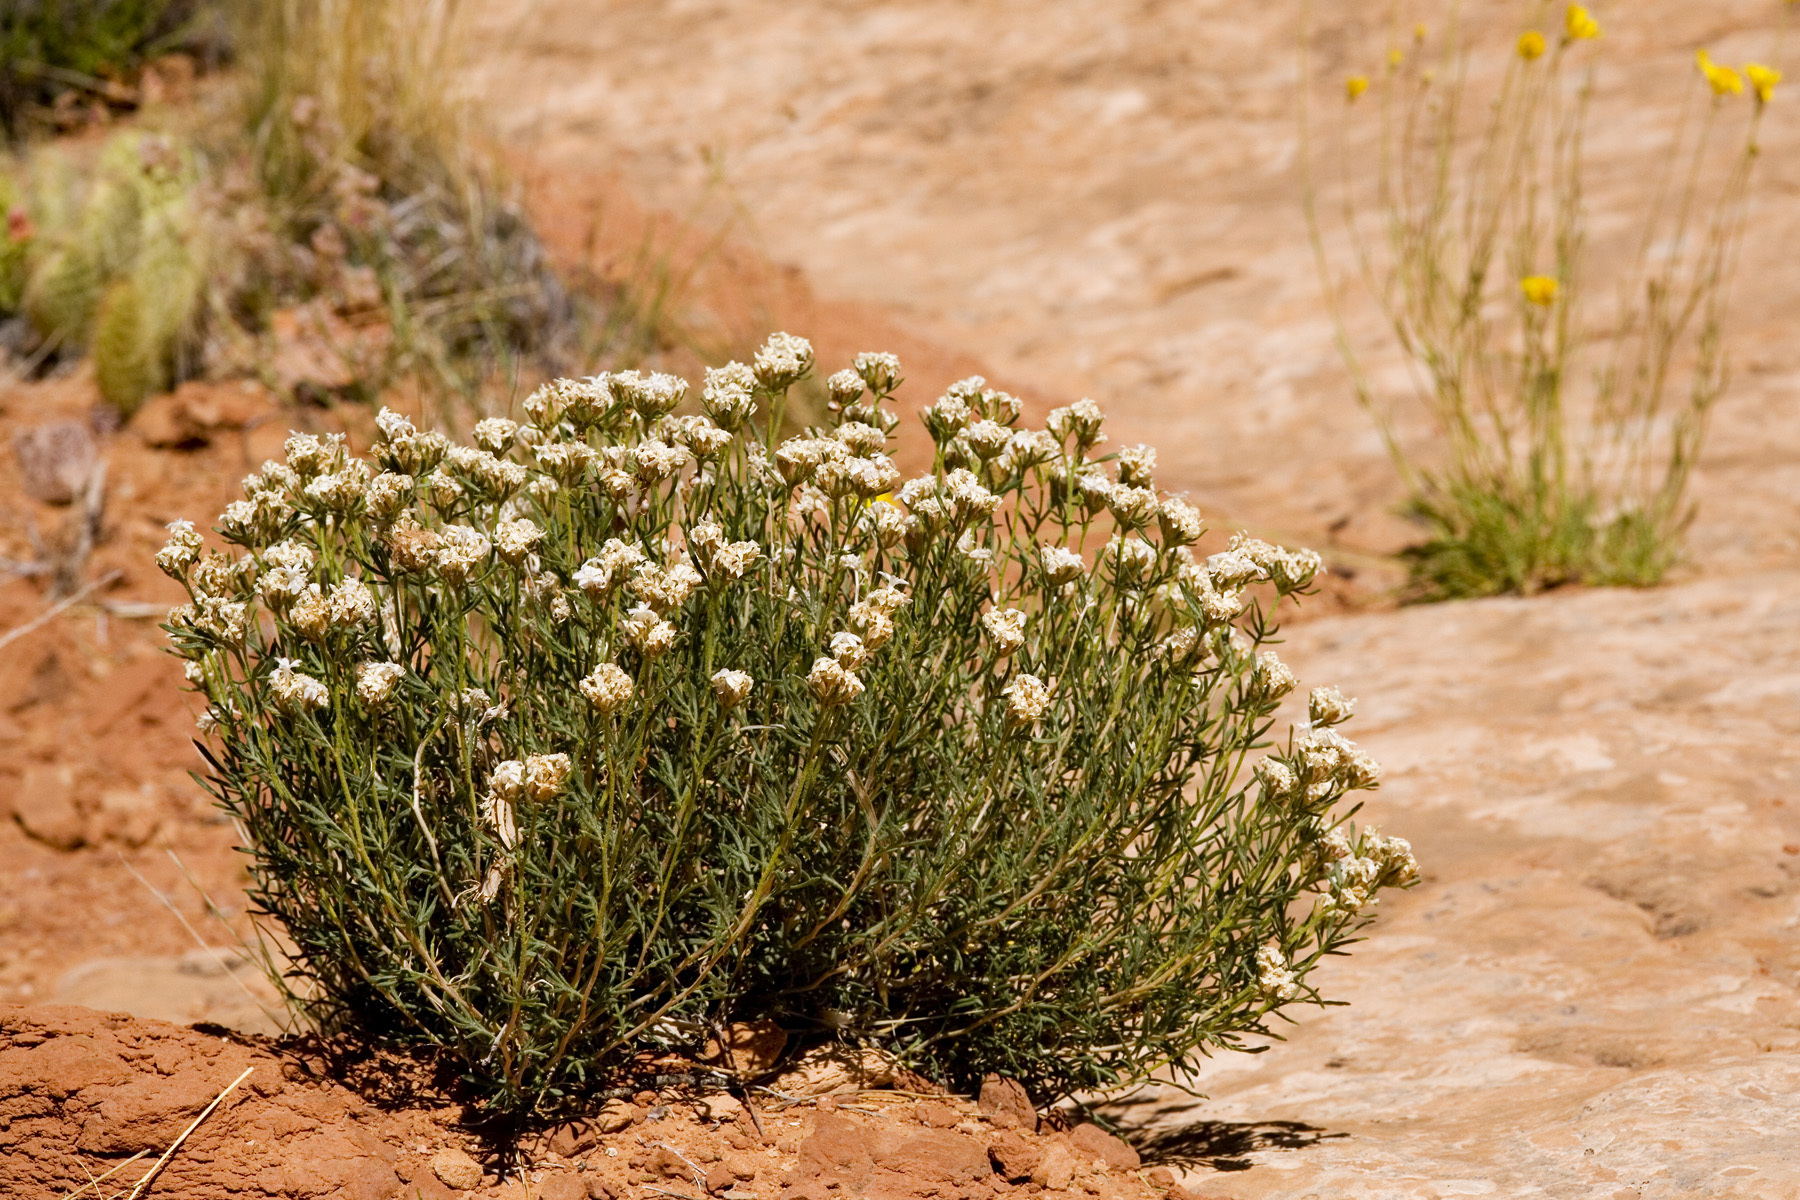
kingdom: Plantae
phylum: Tracheophyta
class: Magnoliopsida
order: Ericales
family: Polemoniaceae
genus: Ipomopsis
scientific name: Ipomopsis roseata
